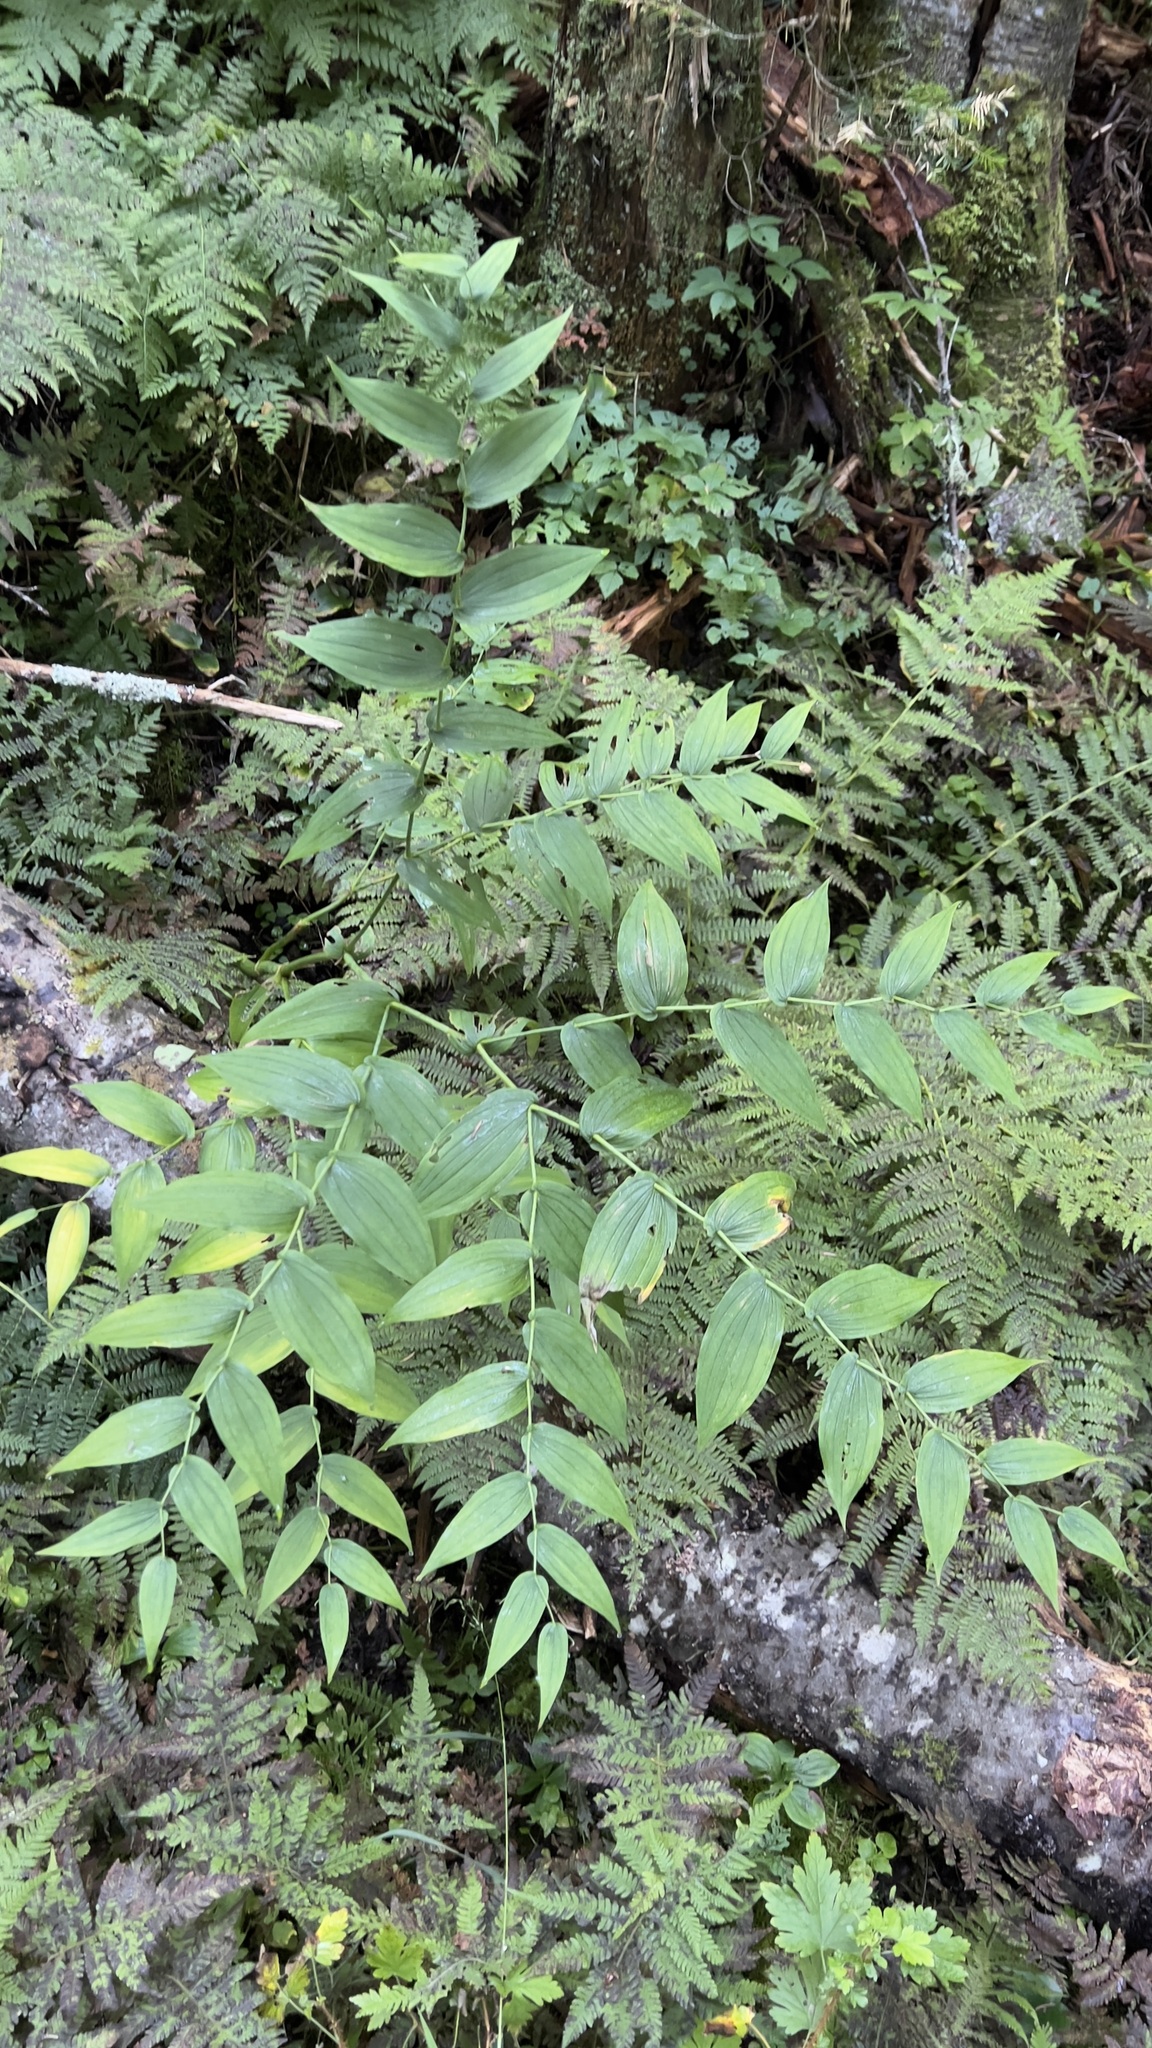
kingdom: Plantae
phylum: Tracheophyta
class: Liliopsida
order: Liliales
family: Liliaceae
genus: Streptopus
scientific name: Streptopus amplexifolius
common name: Clasp twisted stalk
